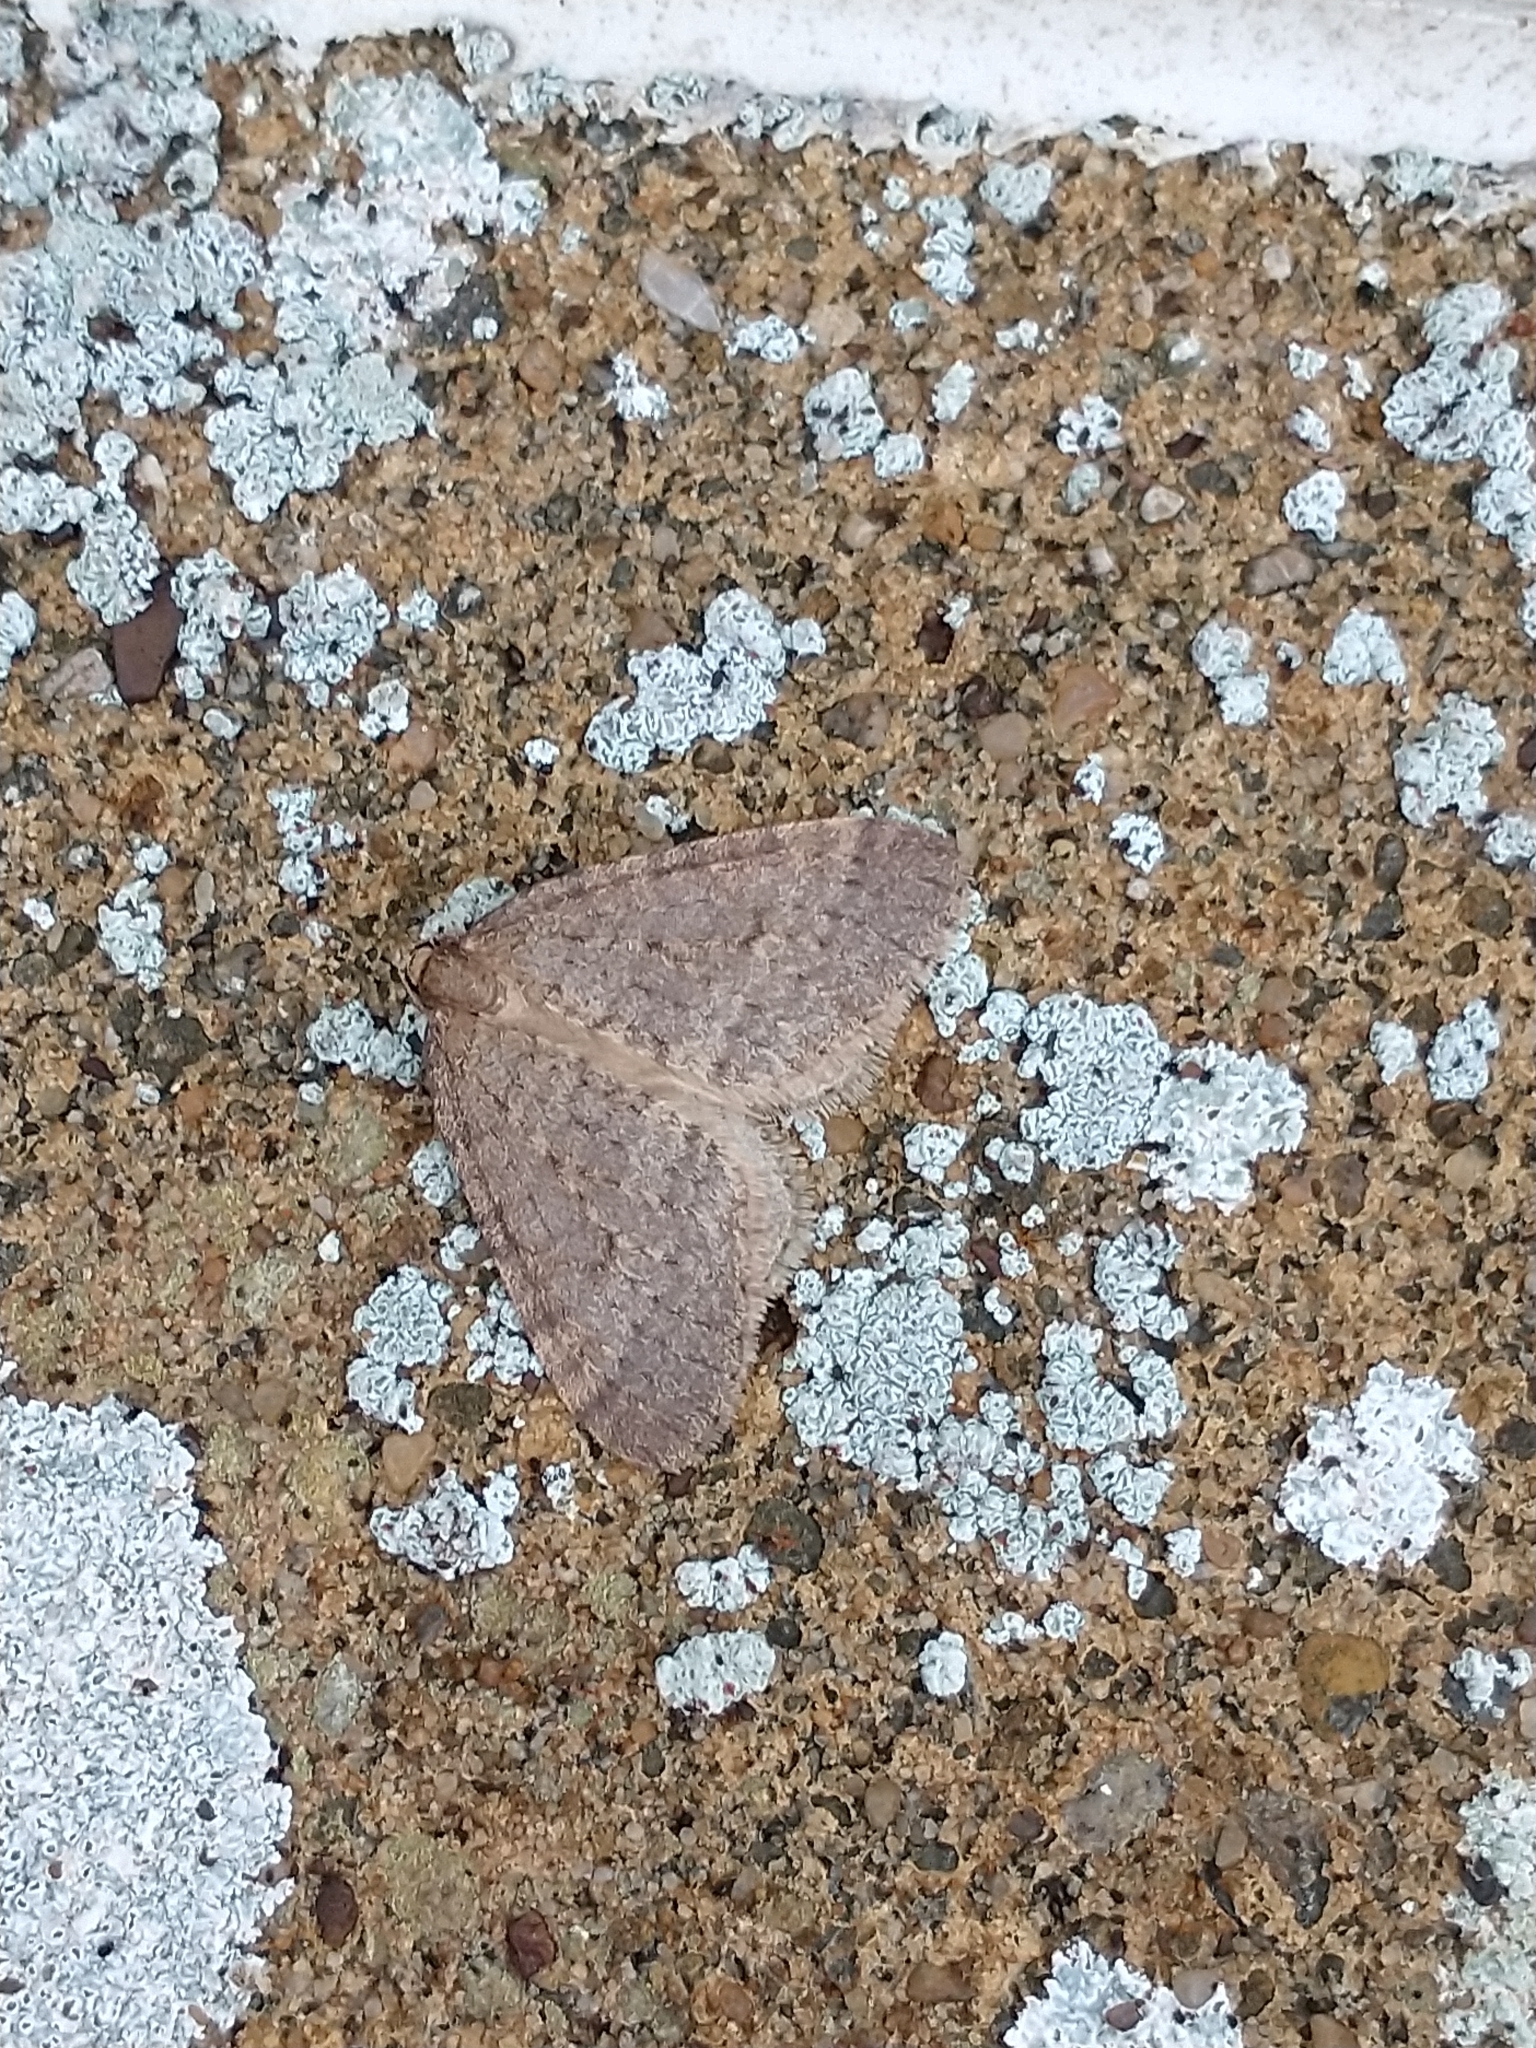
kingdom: Animalia
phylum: Arthropoda
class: Insecta
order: Lepidoptera
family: Geometridae
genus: Operophtera
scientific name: Operophtera brumata
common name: Winter moth
